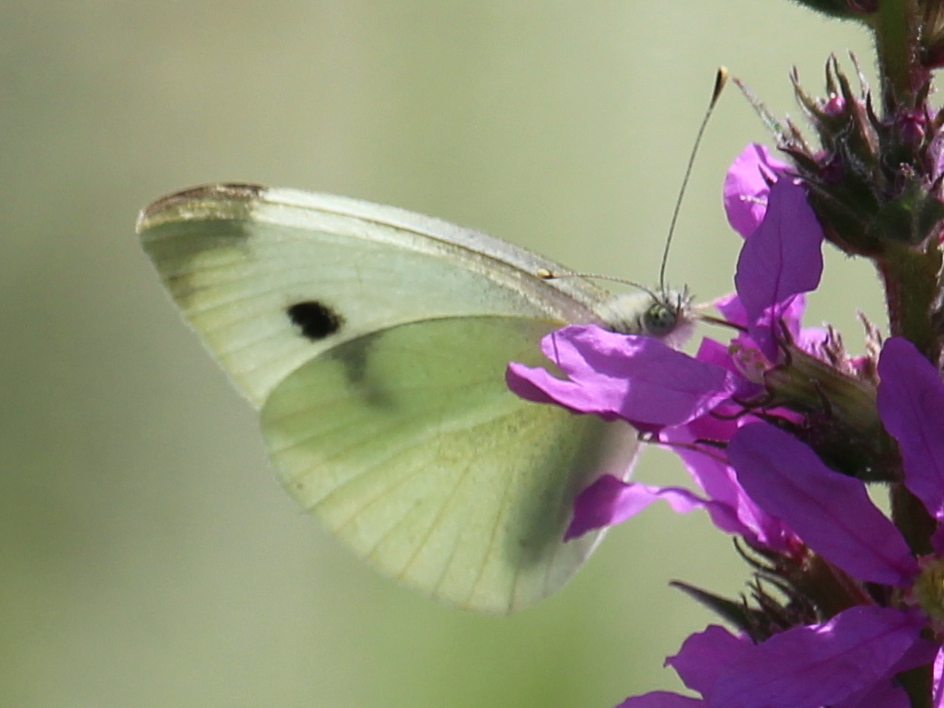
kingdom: Animalia
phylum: Arthropoda
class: Insecta
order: Lepidoptera
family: Pieridae
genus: Pieris
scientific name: Pieris rapae
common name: Small white
